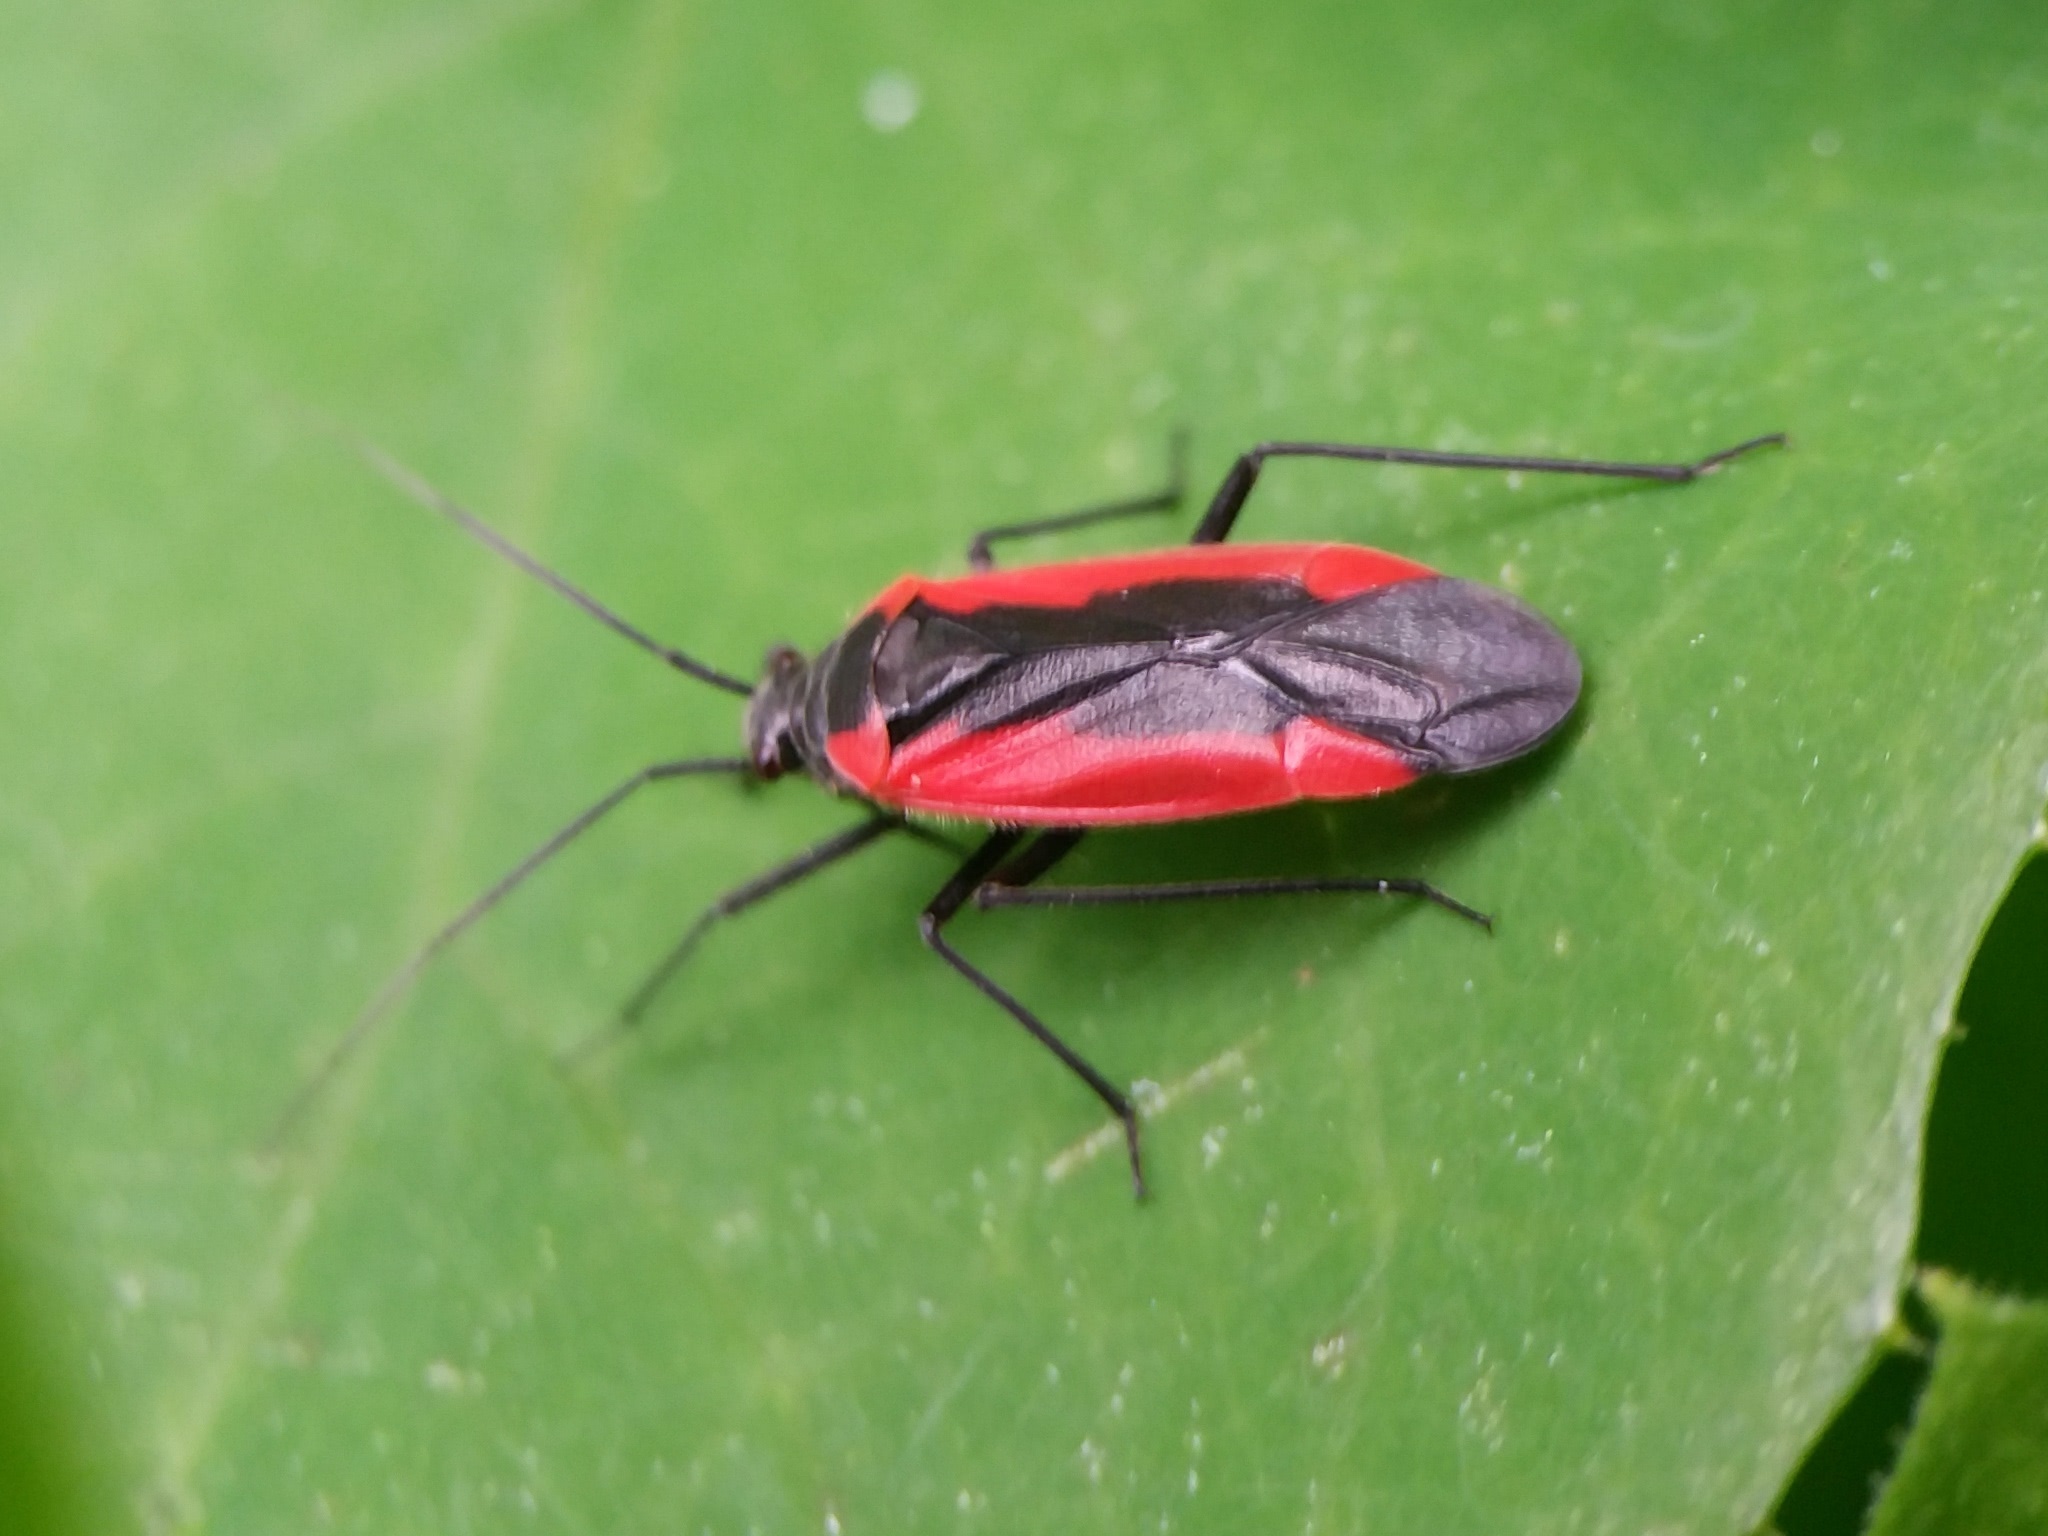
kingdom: Animalia
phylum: Arthropoda
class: Insecta
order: Hemiptera
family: Miridae
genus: Dionconotus
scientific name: Dionconotus neglectus
